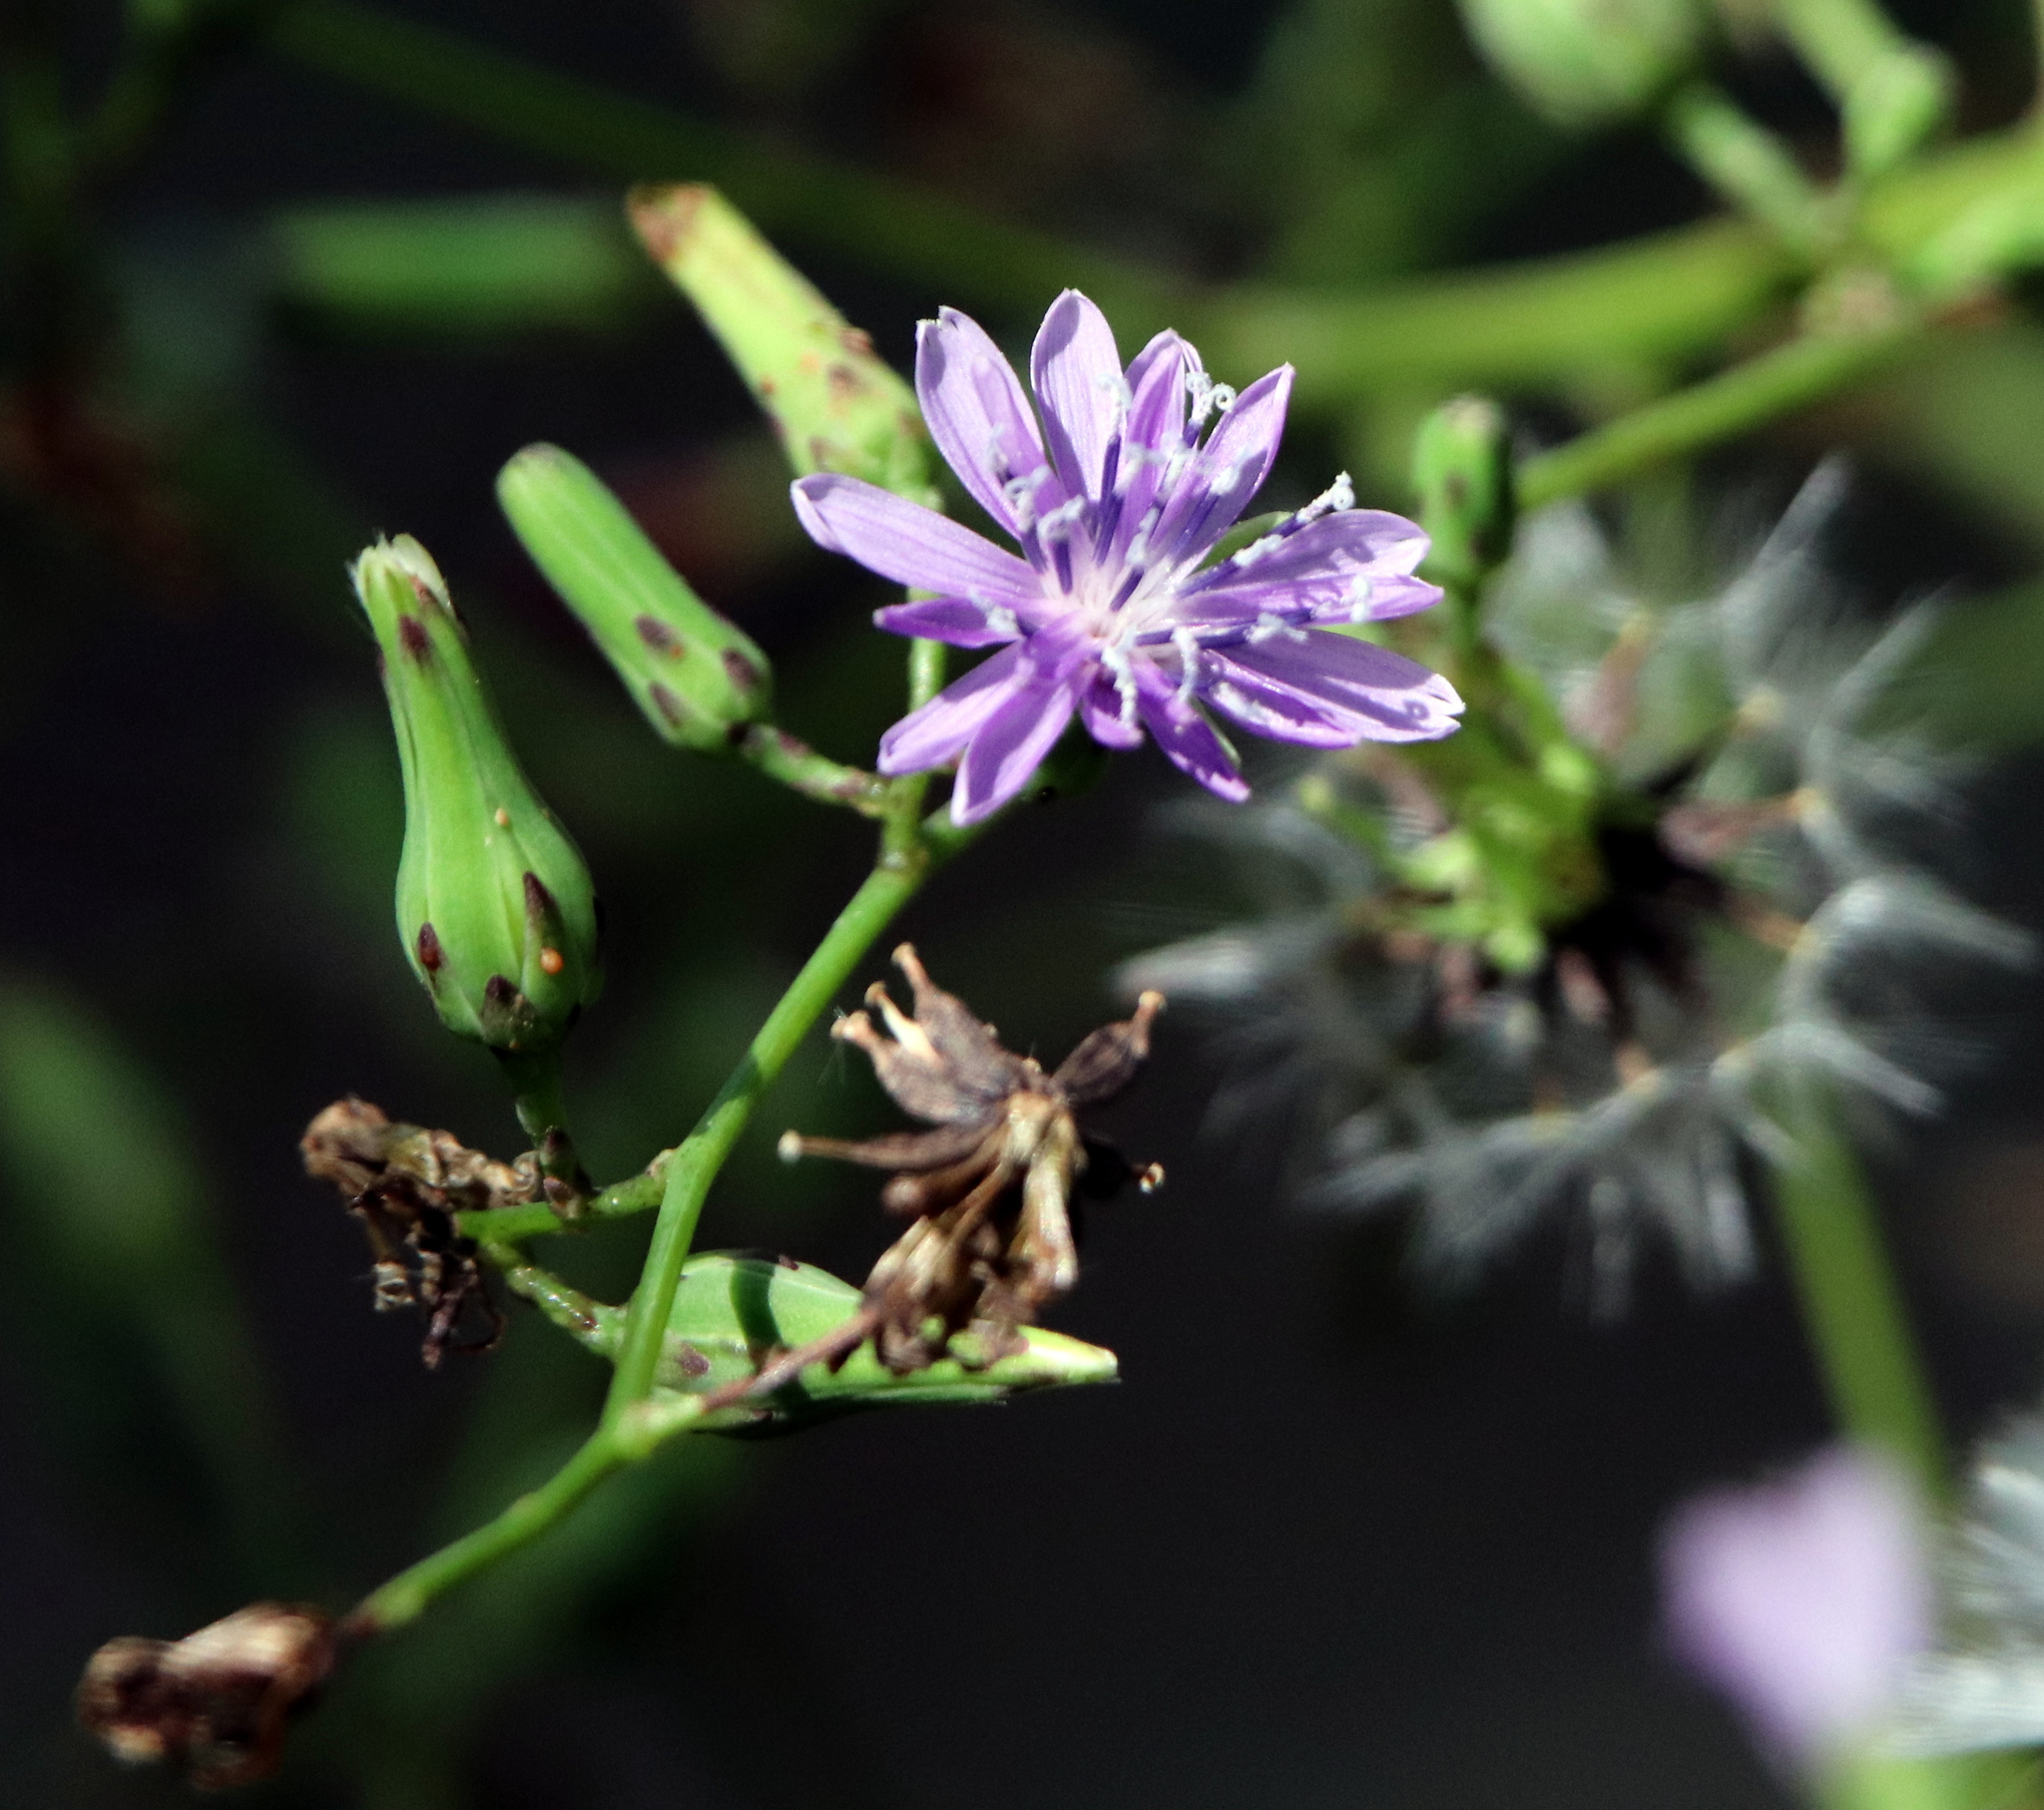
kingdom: Plantae
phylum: Tracheophyta
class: Magnoliopsida
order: Asterales
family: Asteraceae
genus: Lactuca
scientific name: Lactuca floridana
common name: Woodland lettuce
